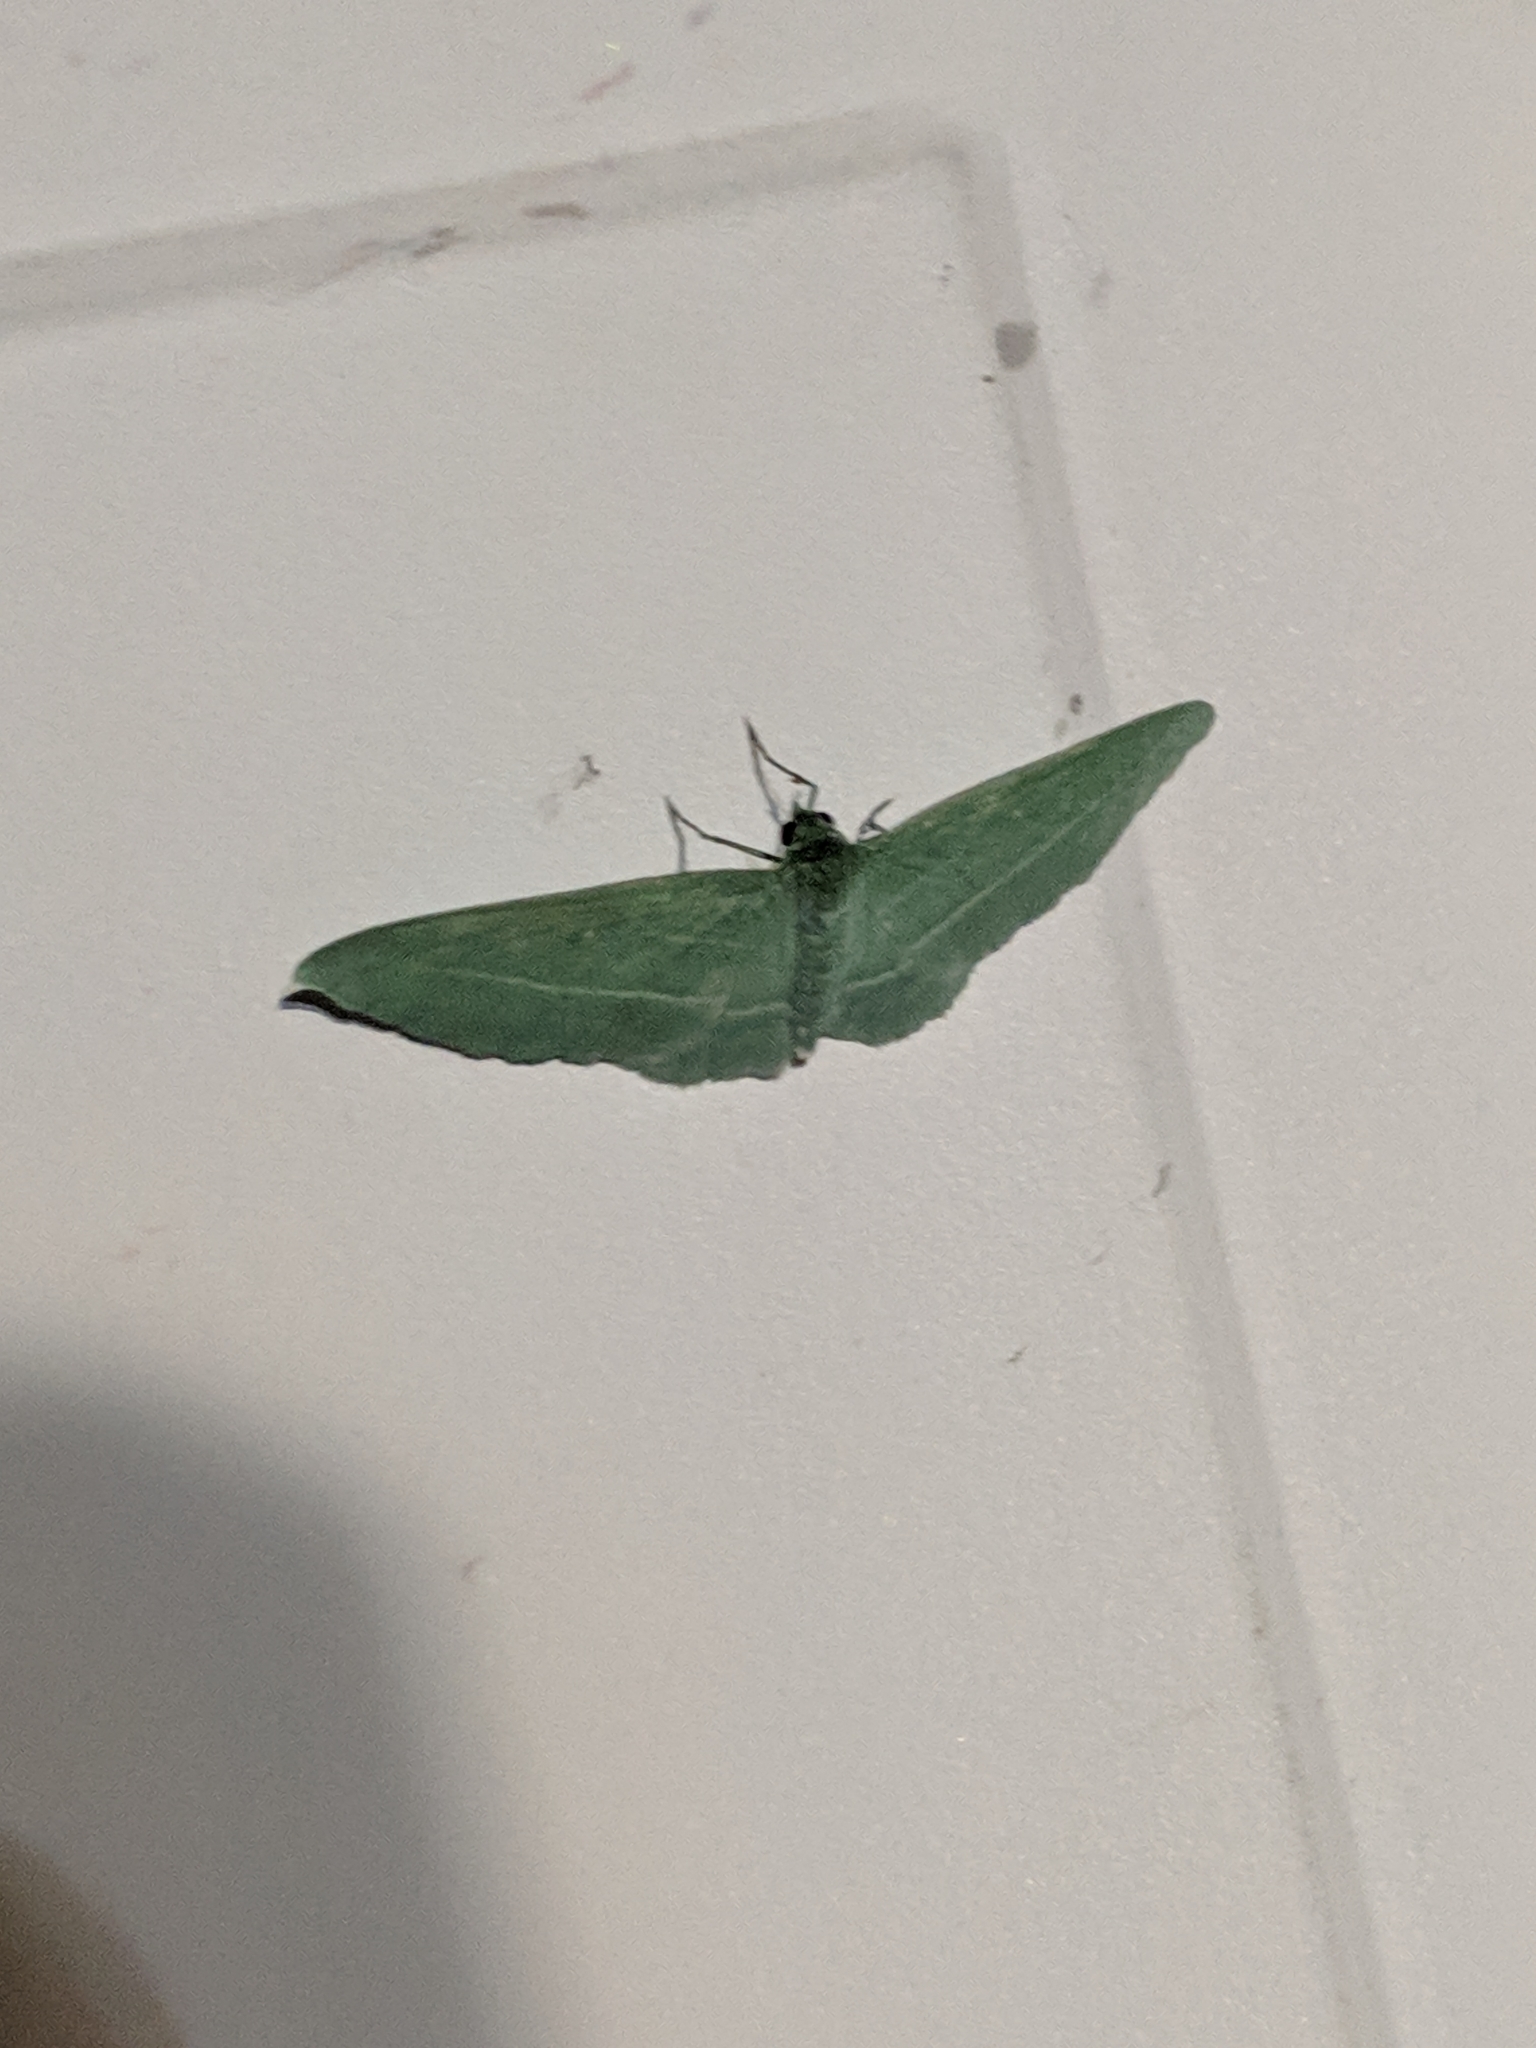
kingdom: Animalia
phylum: Arthropoda
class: Insecta
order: Lepidoptera
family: Geometridae
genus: Dyspteris
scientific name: Dyspteris abortivaria
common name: Bad-wing
